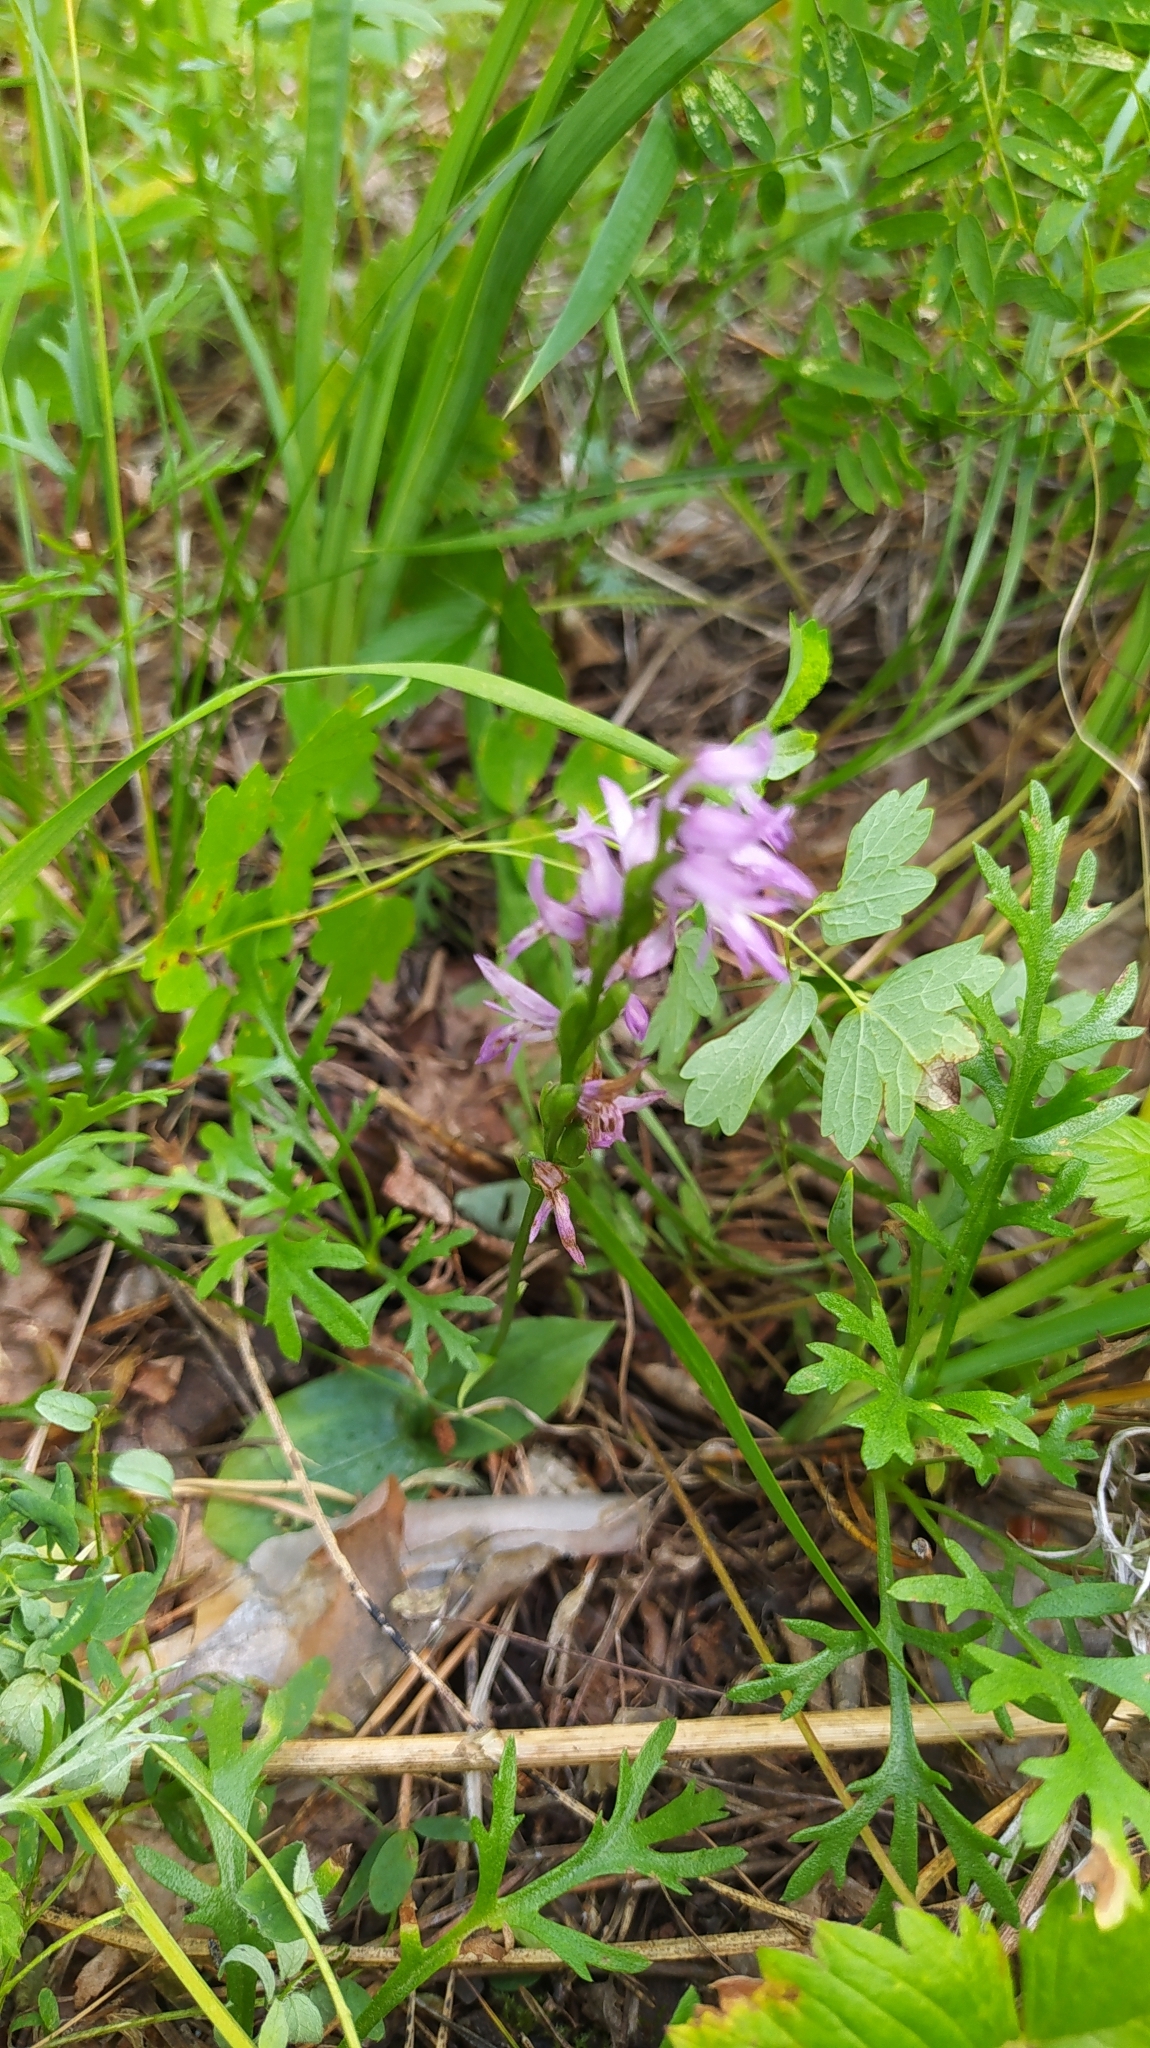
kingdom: Plantae
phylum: Tracheophyta
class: Liliopsida
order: Asparagales
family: Orchidaceae
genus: Hemipilia
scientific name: Hemipilia cucullata
